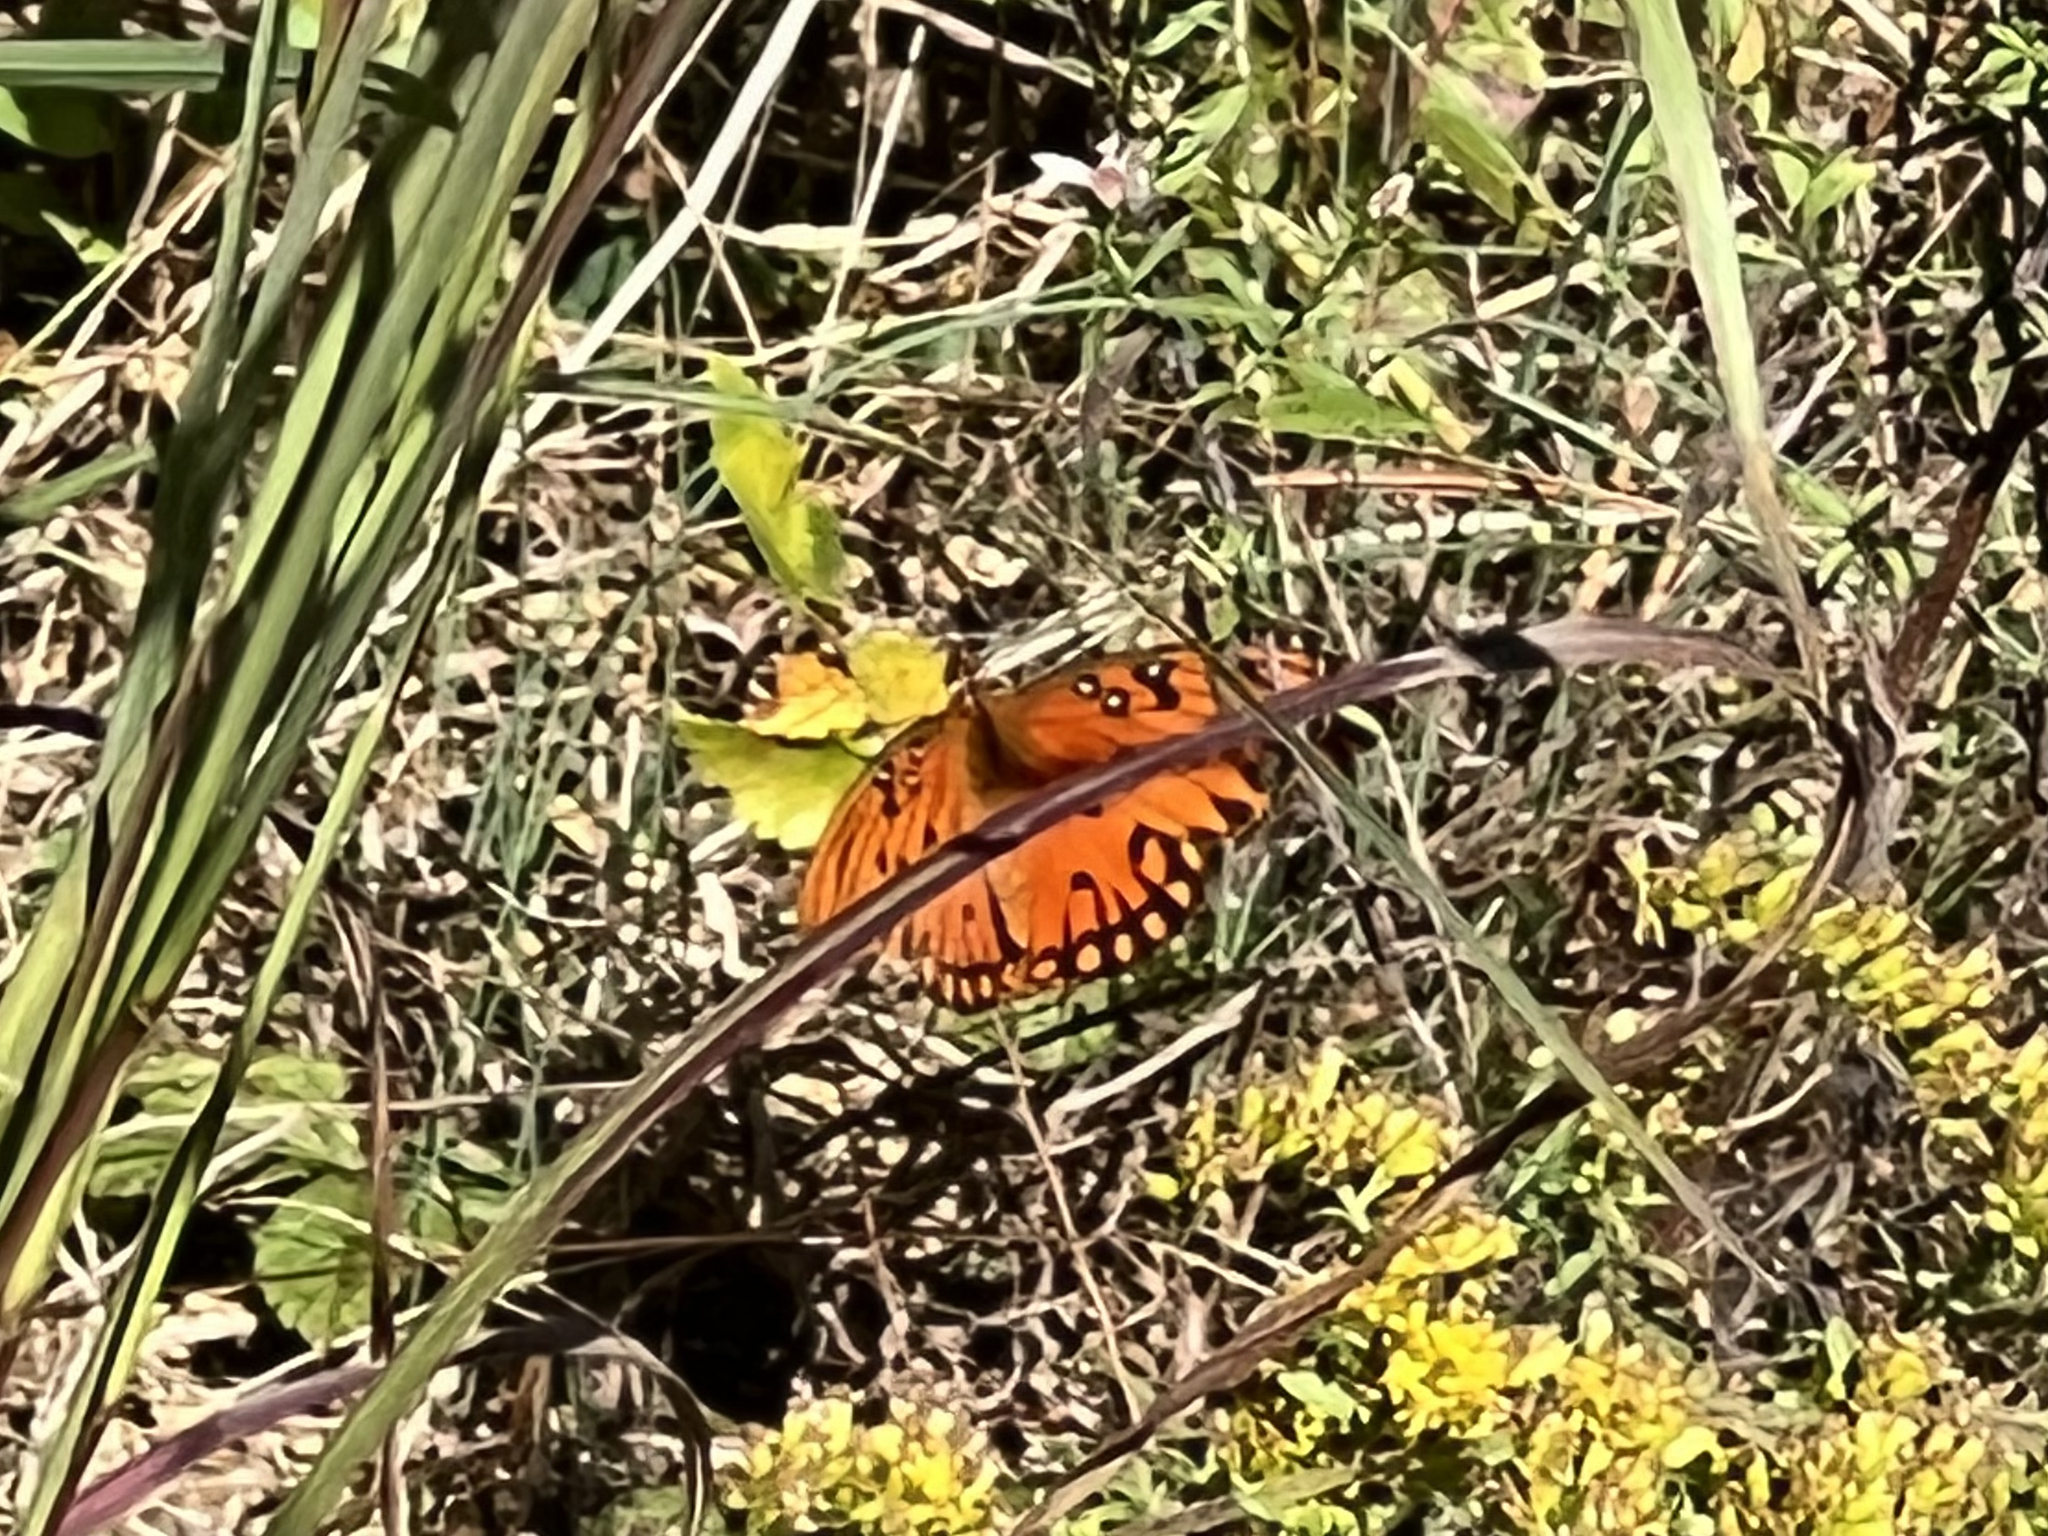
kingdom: Animalia
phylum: Arthropoda
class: Insecta
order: Lepidoptera
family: Nymphalidae
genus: Dione
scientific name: Dione vanillae
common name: Gulf fritillary
